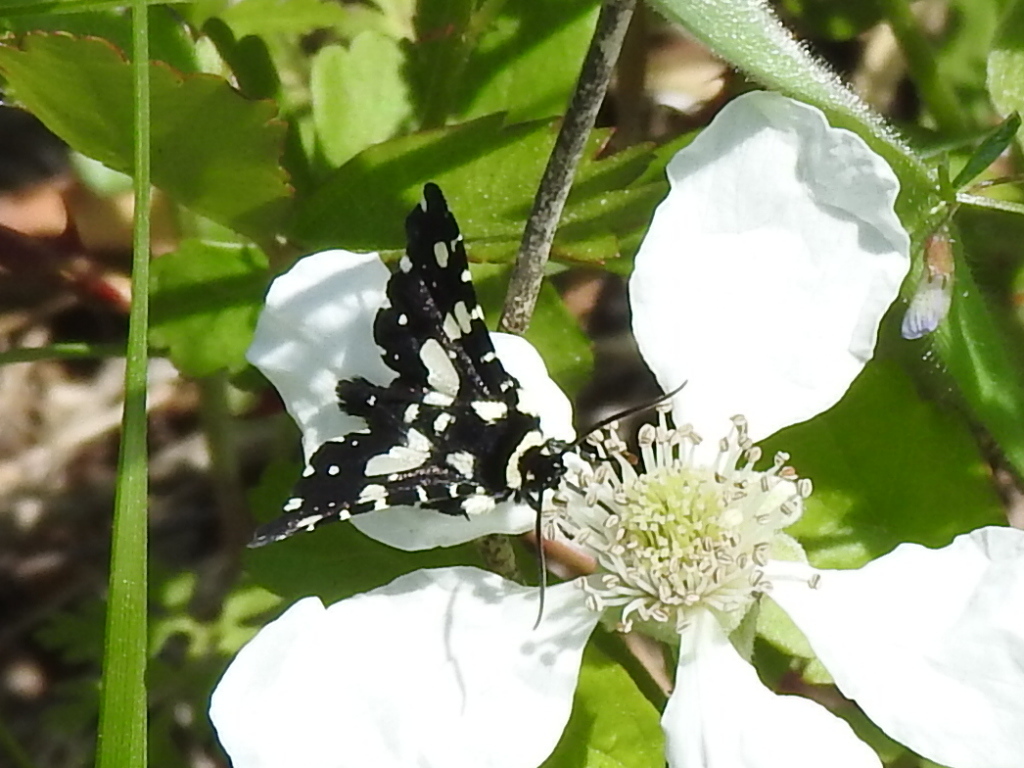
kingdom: Animalia
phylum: Arthropoda
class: Insecta
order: Lepidoptera
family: Thyrididae
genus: Pseudothyris
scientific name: Pseudothyris sepulchralis
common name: Mournful thyris moth
